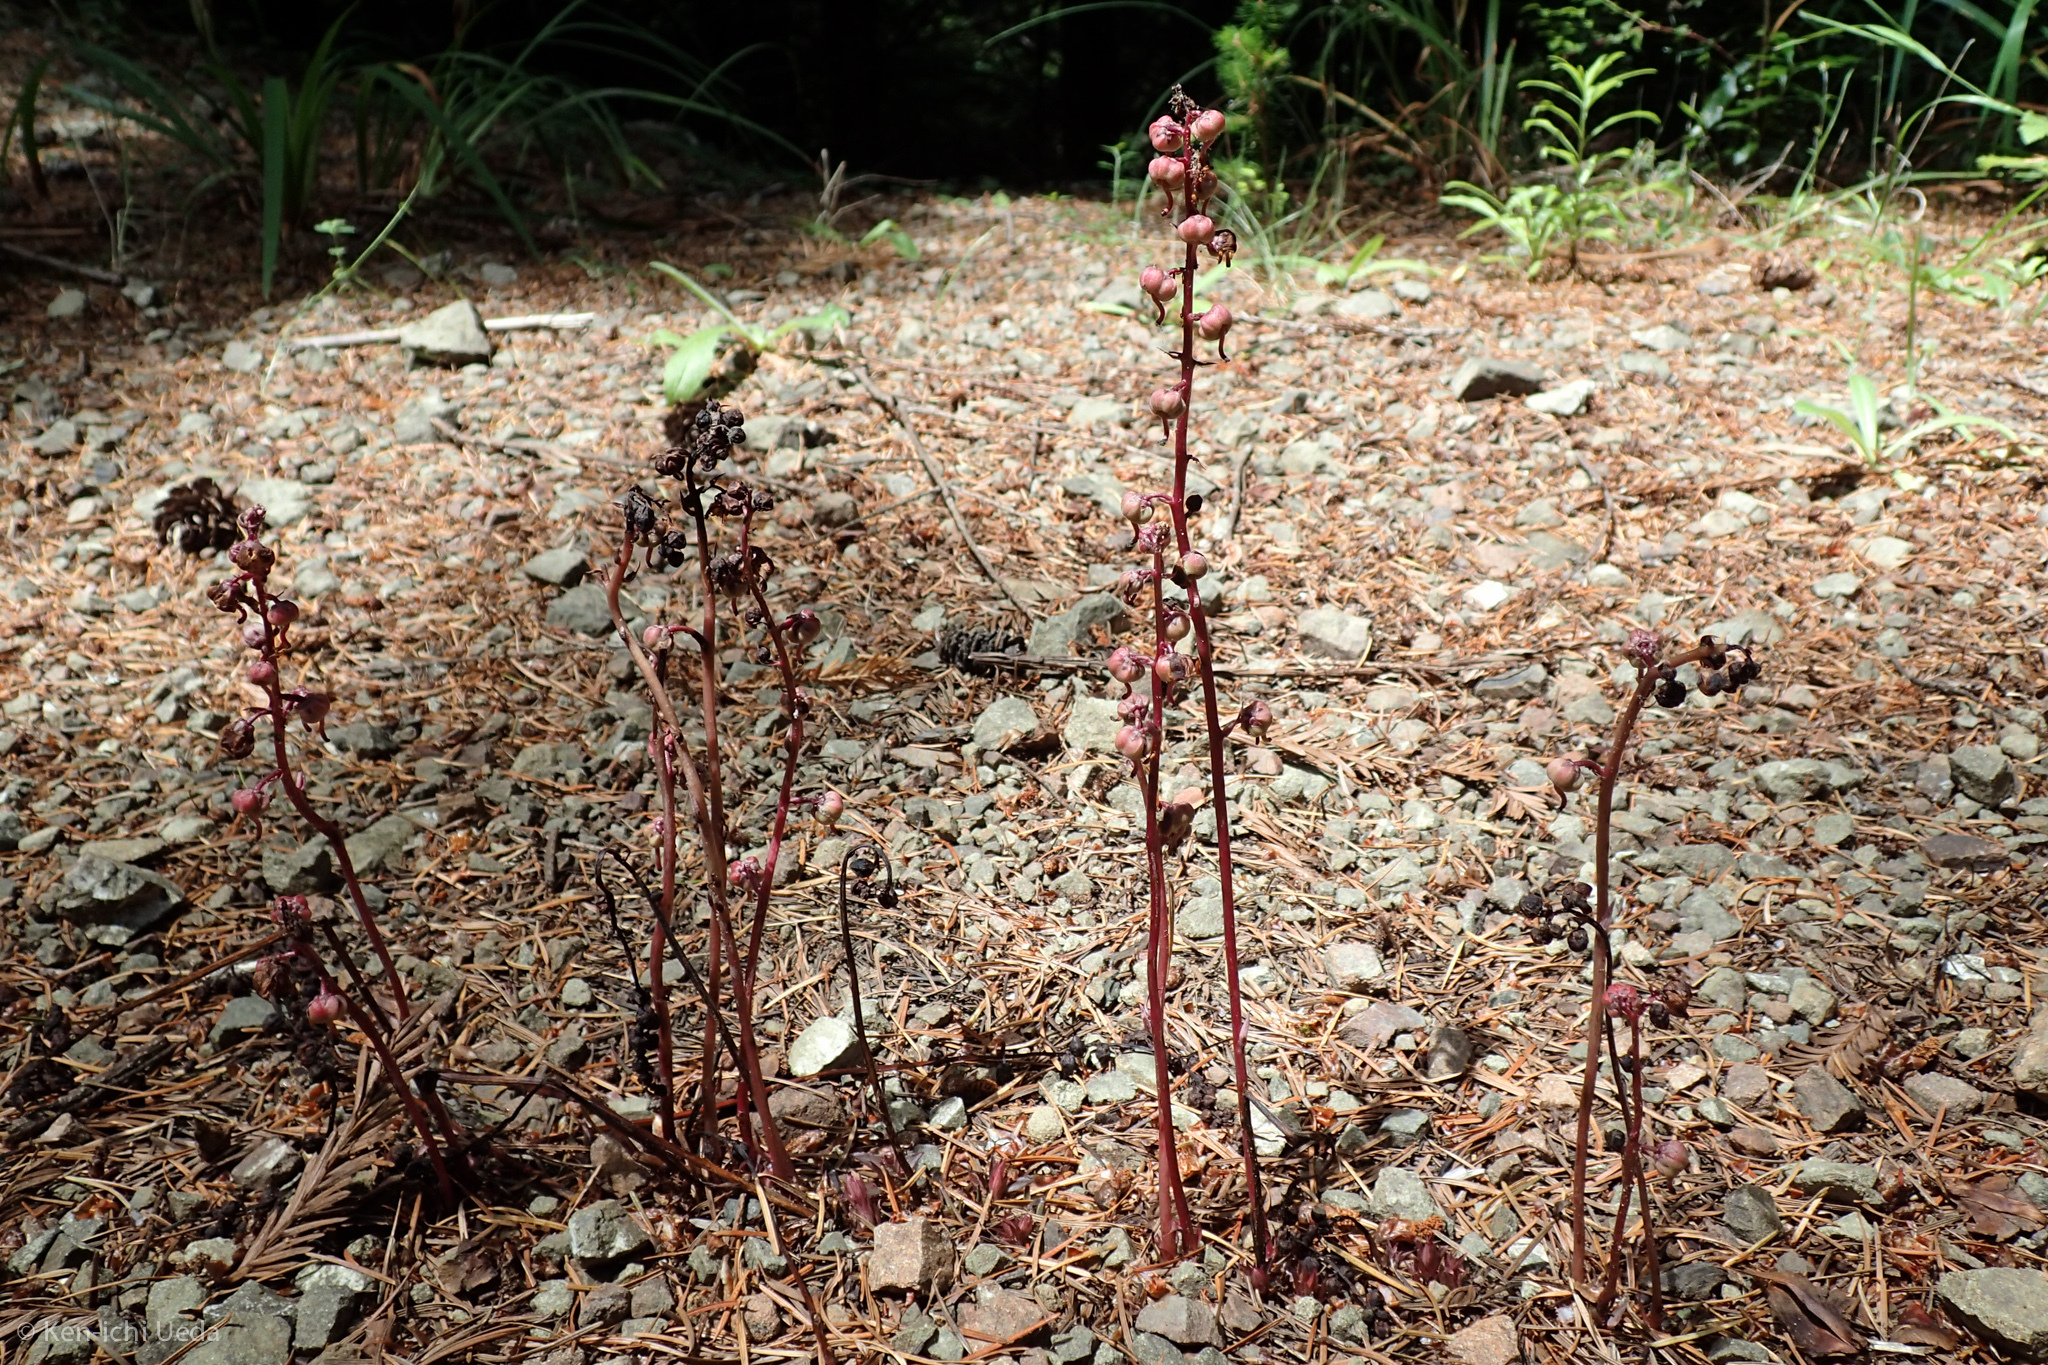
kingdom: Plantae
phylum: Tracheophyta
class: Magnoliopsida
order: Ericales
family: Ericaceae
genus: Pyrola
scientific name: Pyrola aphylla
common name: Leafless wintergreen
